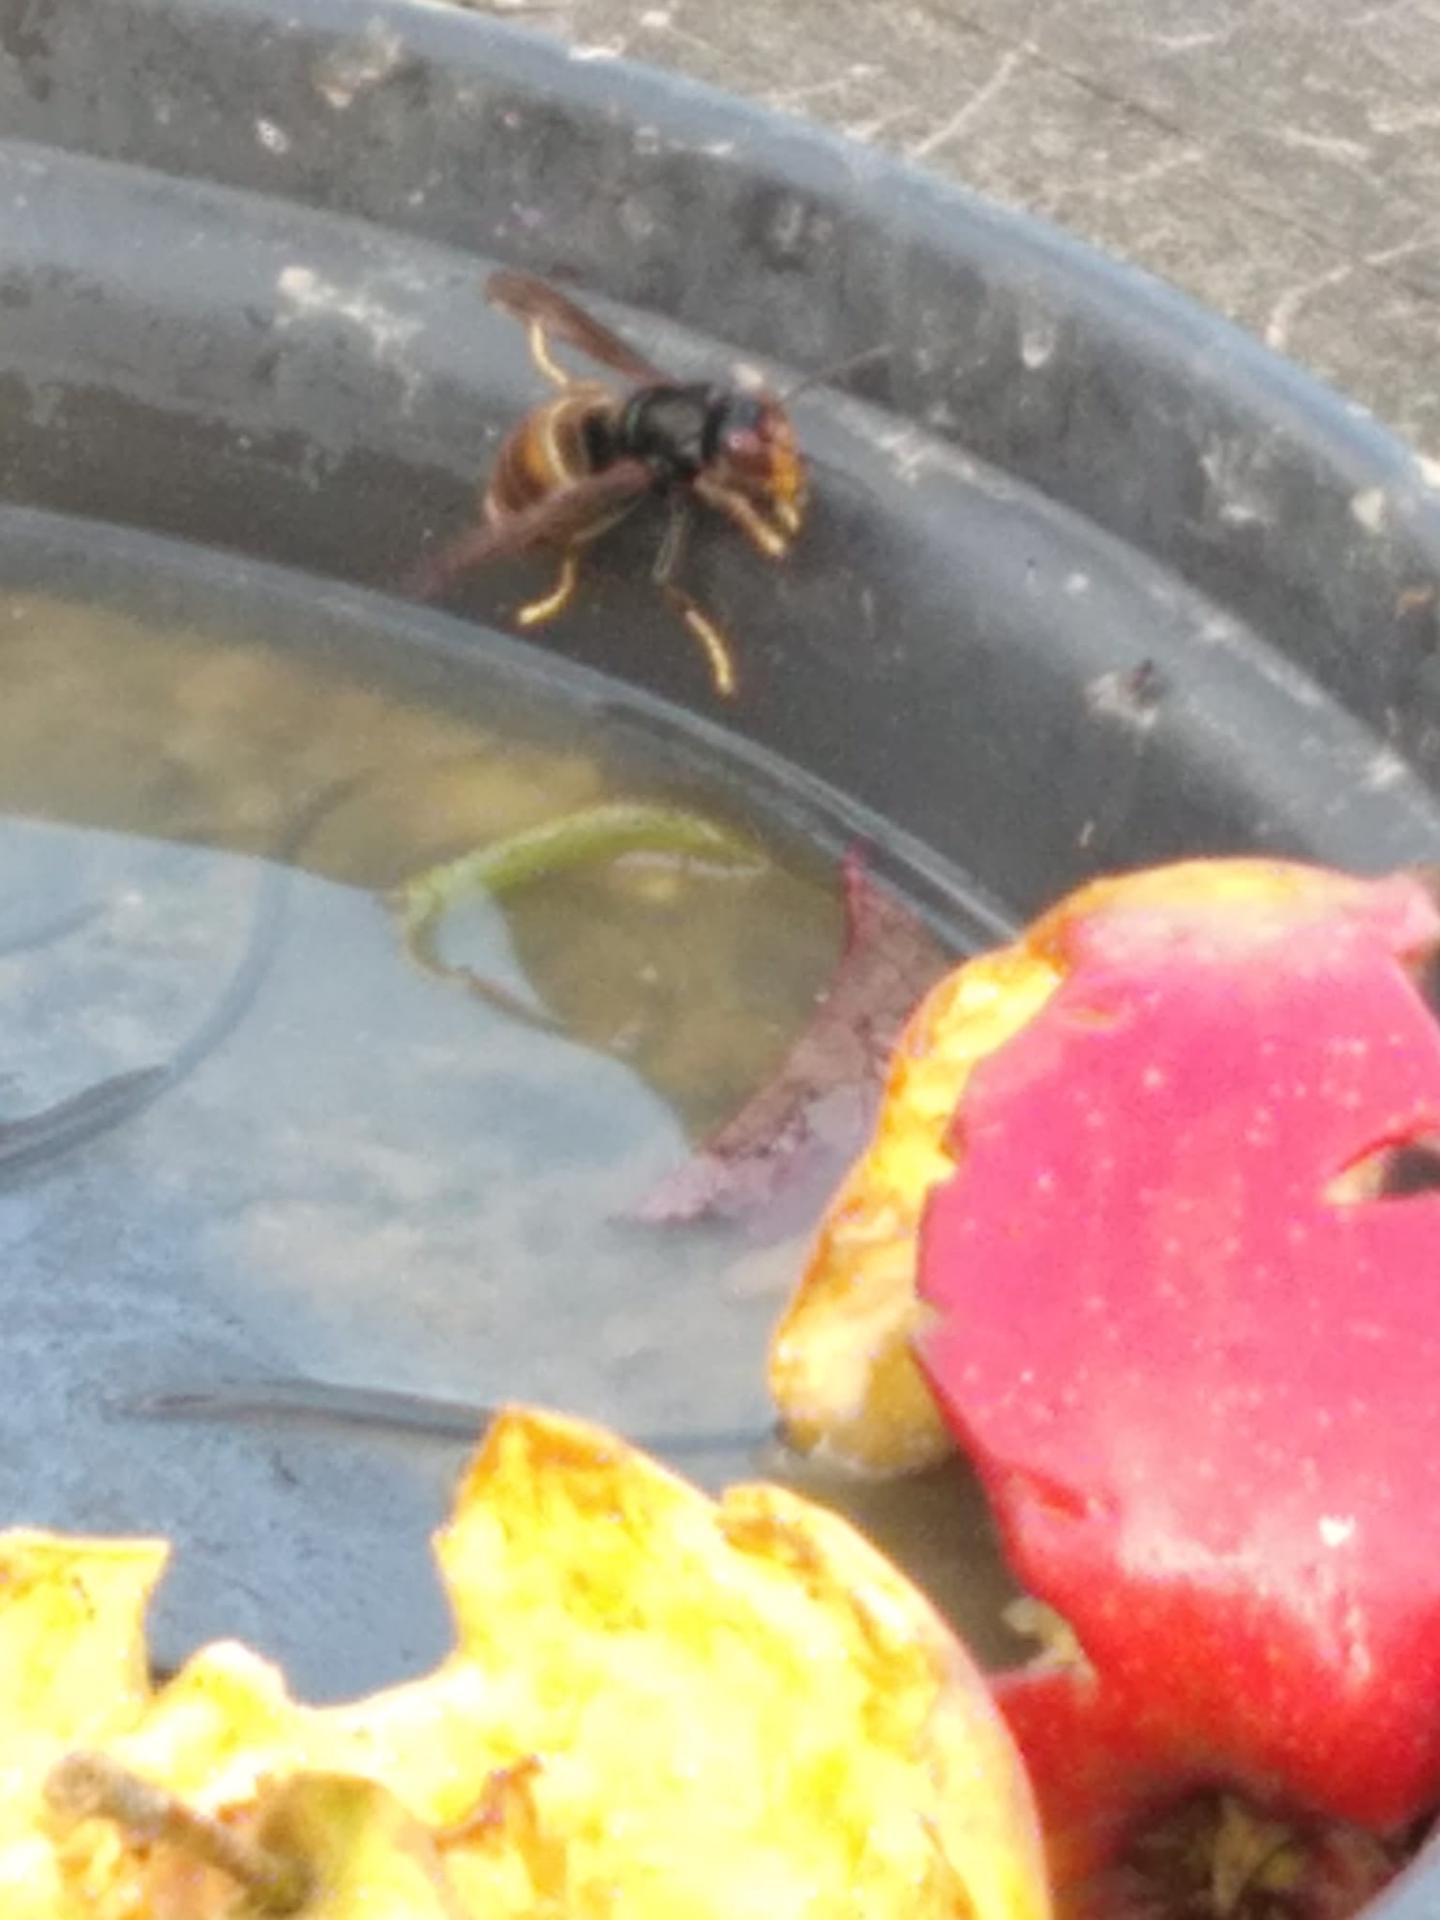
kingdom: Animalia
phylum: Arthropoda
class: Insecta
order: Hymenoptera
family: Vespidae
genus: Vespa
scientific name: Vespa velutina
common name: Asian hornet
